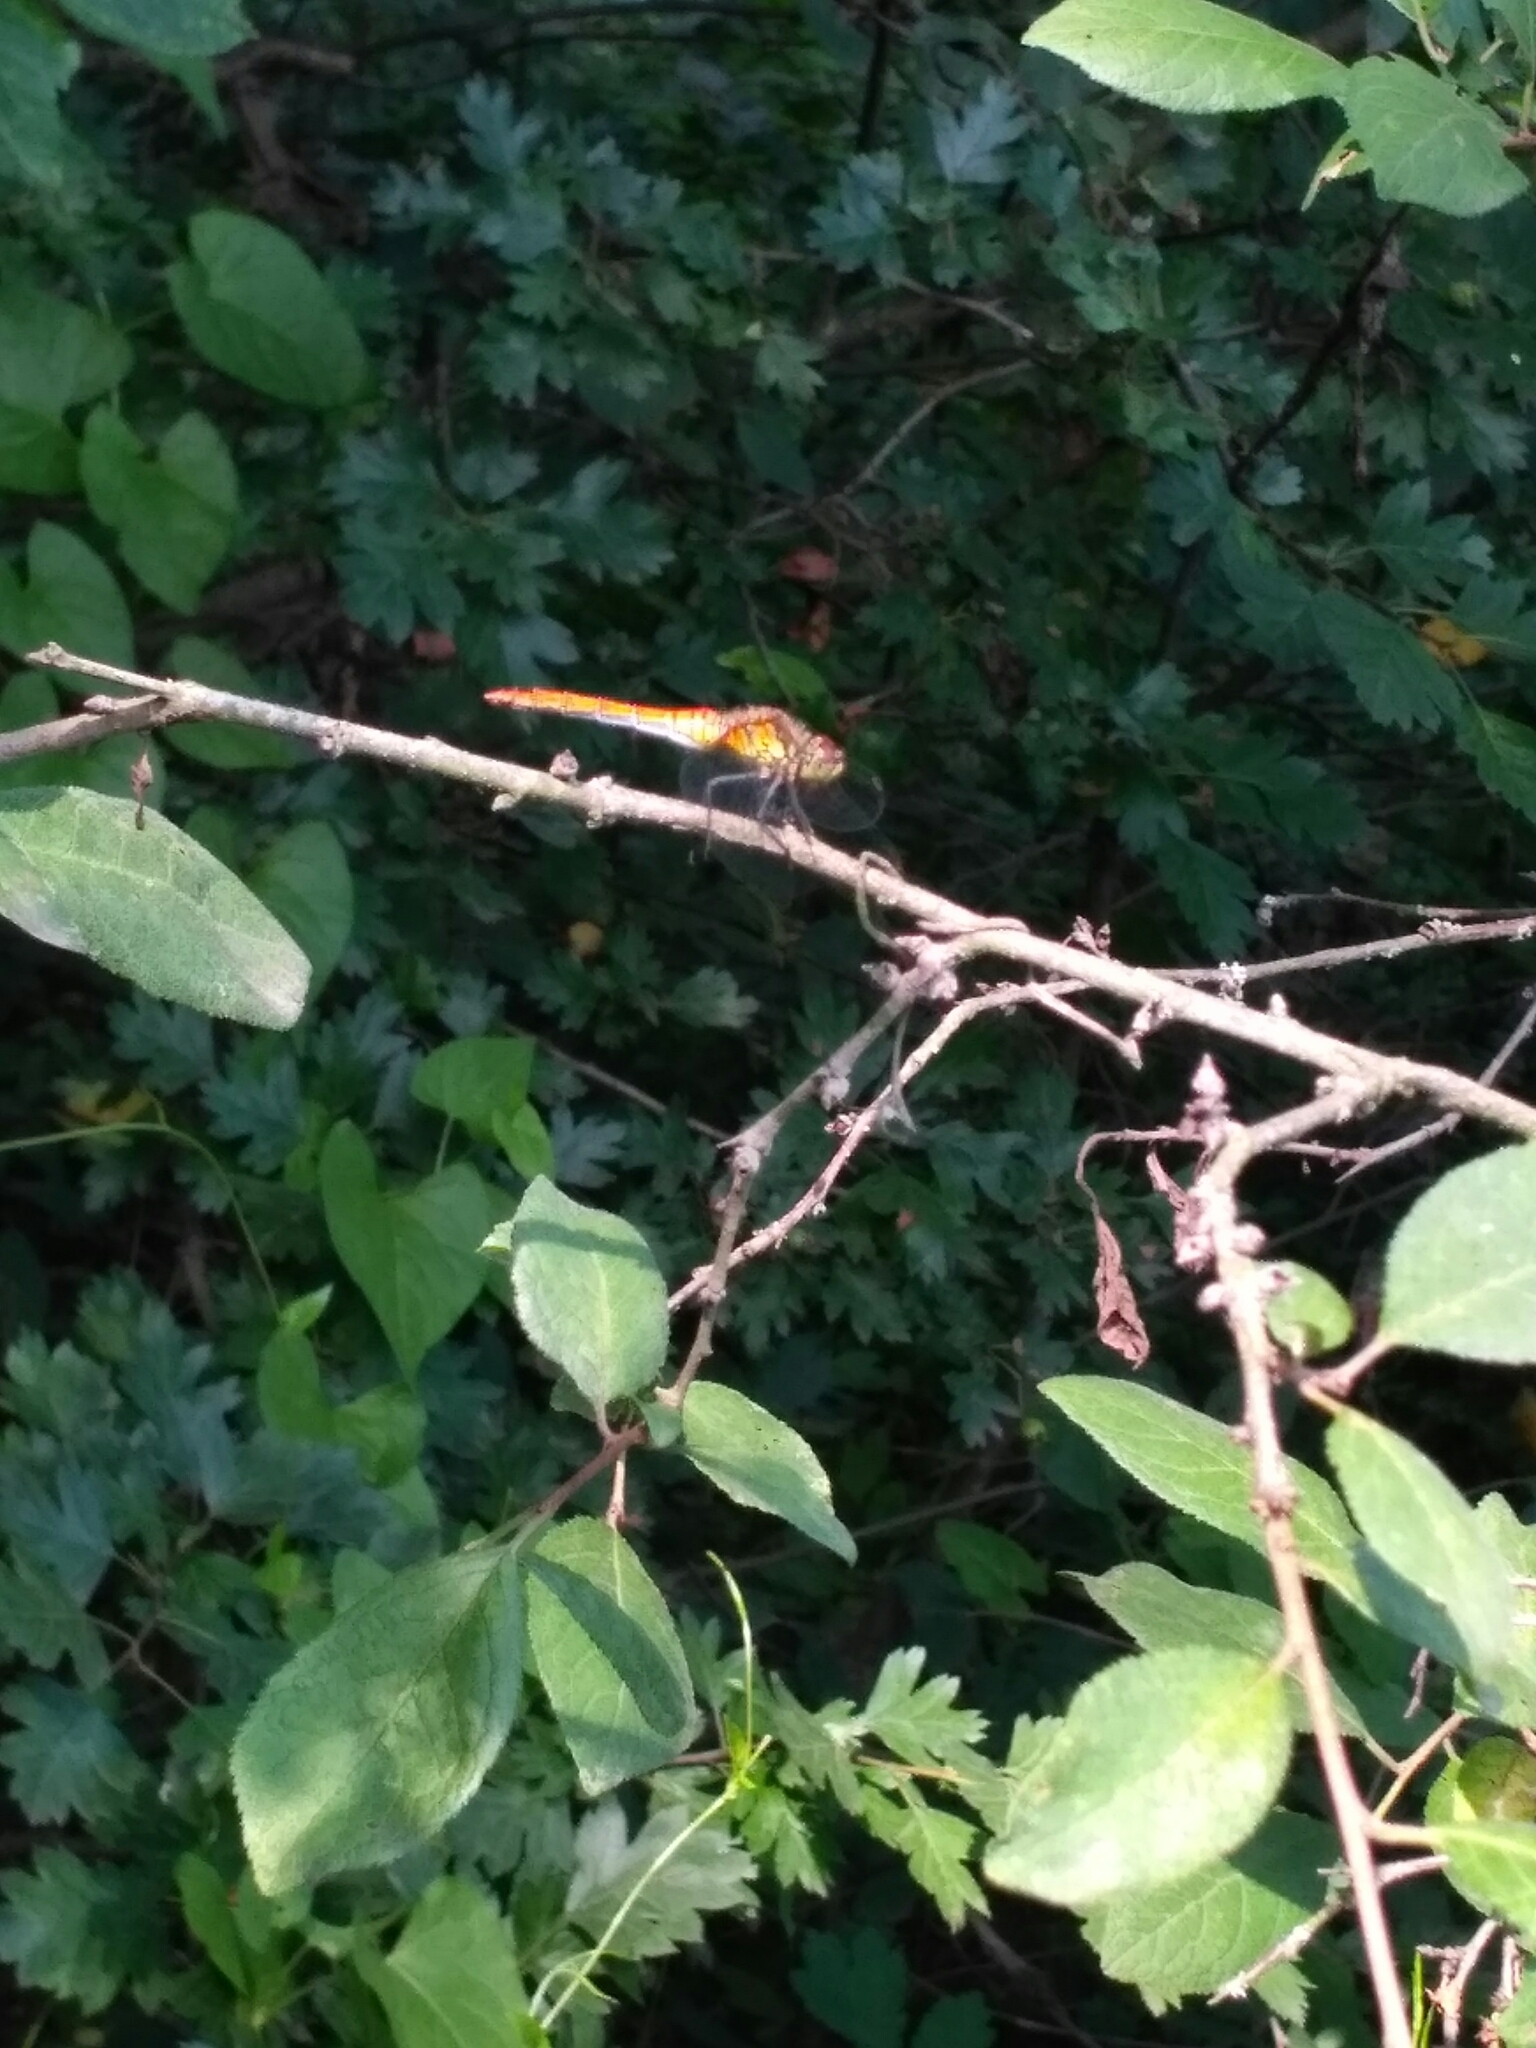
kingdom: Animalia
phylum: Arthropoda
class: Insecta
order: Odonata
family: Libellulidae
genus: Sympetrum
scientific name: Sympetrum sanguineum
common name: Ruddy darter
